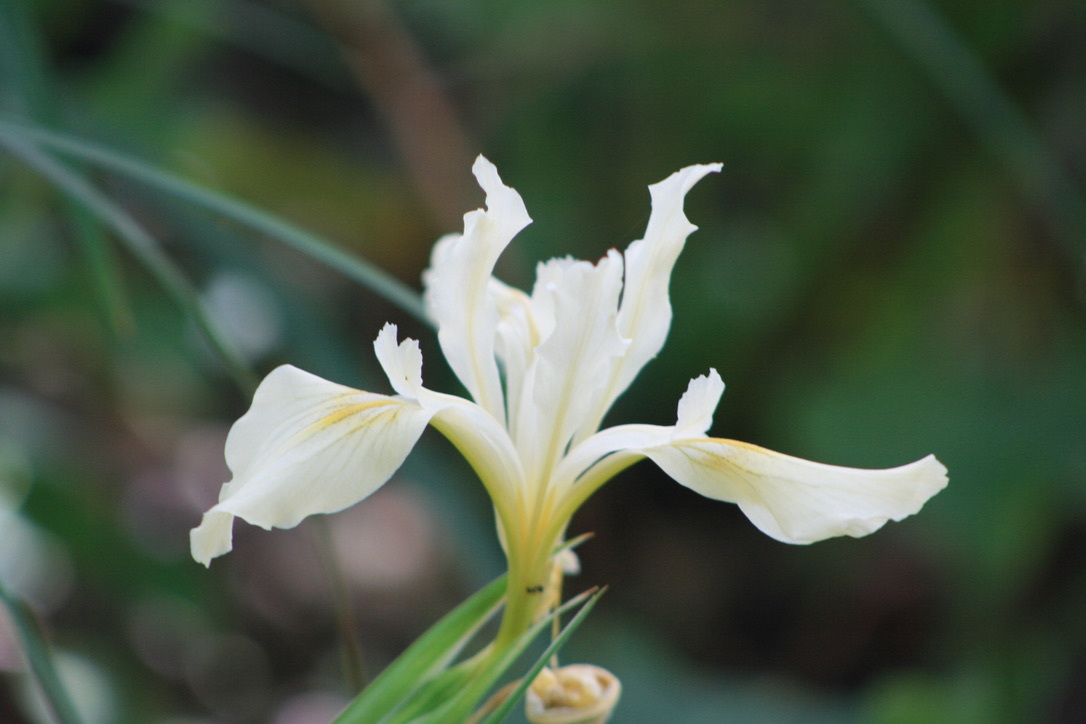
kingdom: Plantae
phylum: Tracheophyta
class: Liliopsida
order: Asparagales
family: Iridaceae
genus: Iris
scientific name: Iris douglasiana
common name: Marin iris
